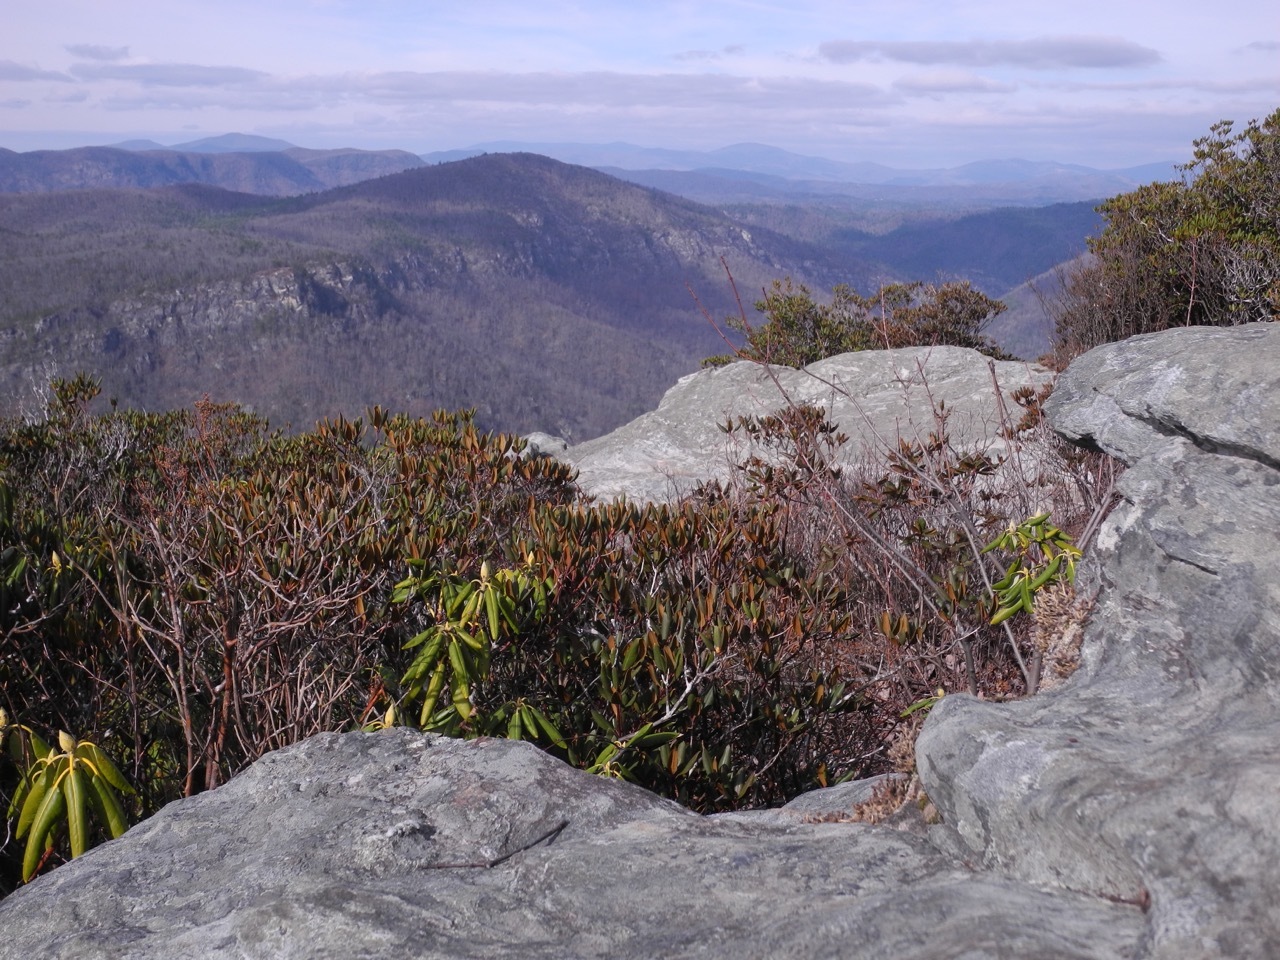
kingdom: Plantae
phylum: Tracheophyta
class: Magnoliopsida
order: Ericales
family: Ericaceae
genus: Rhododendron
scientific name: Rhododendron catawbiense
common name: Catawba rhododendron
